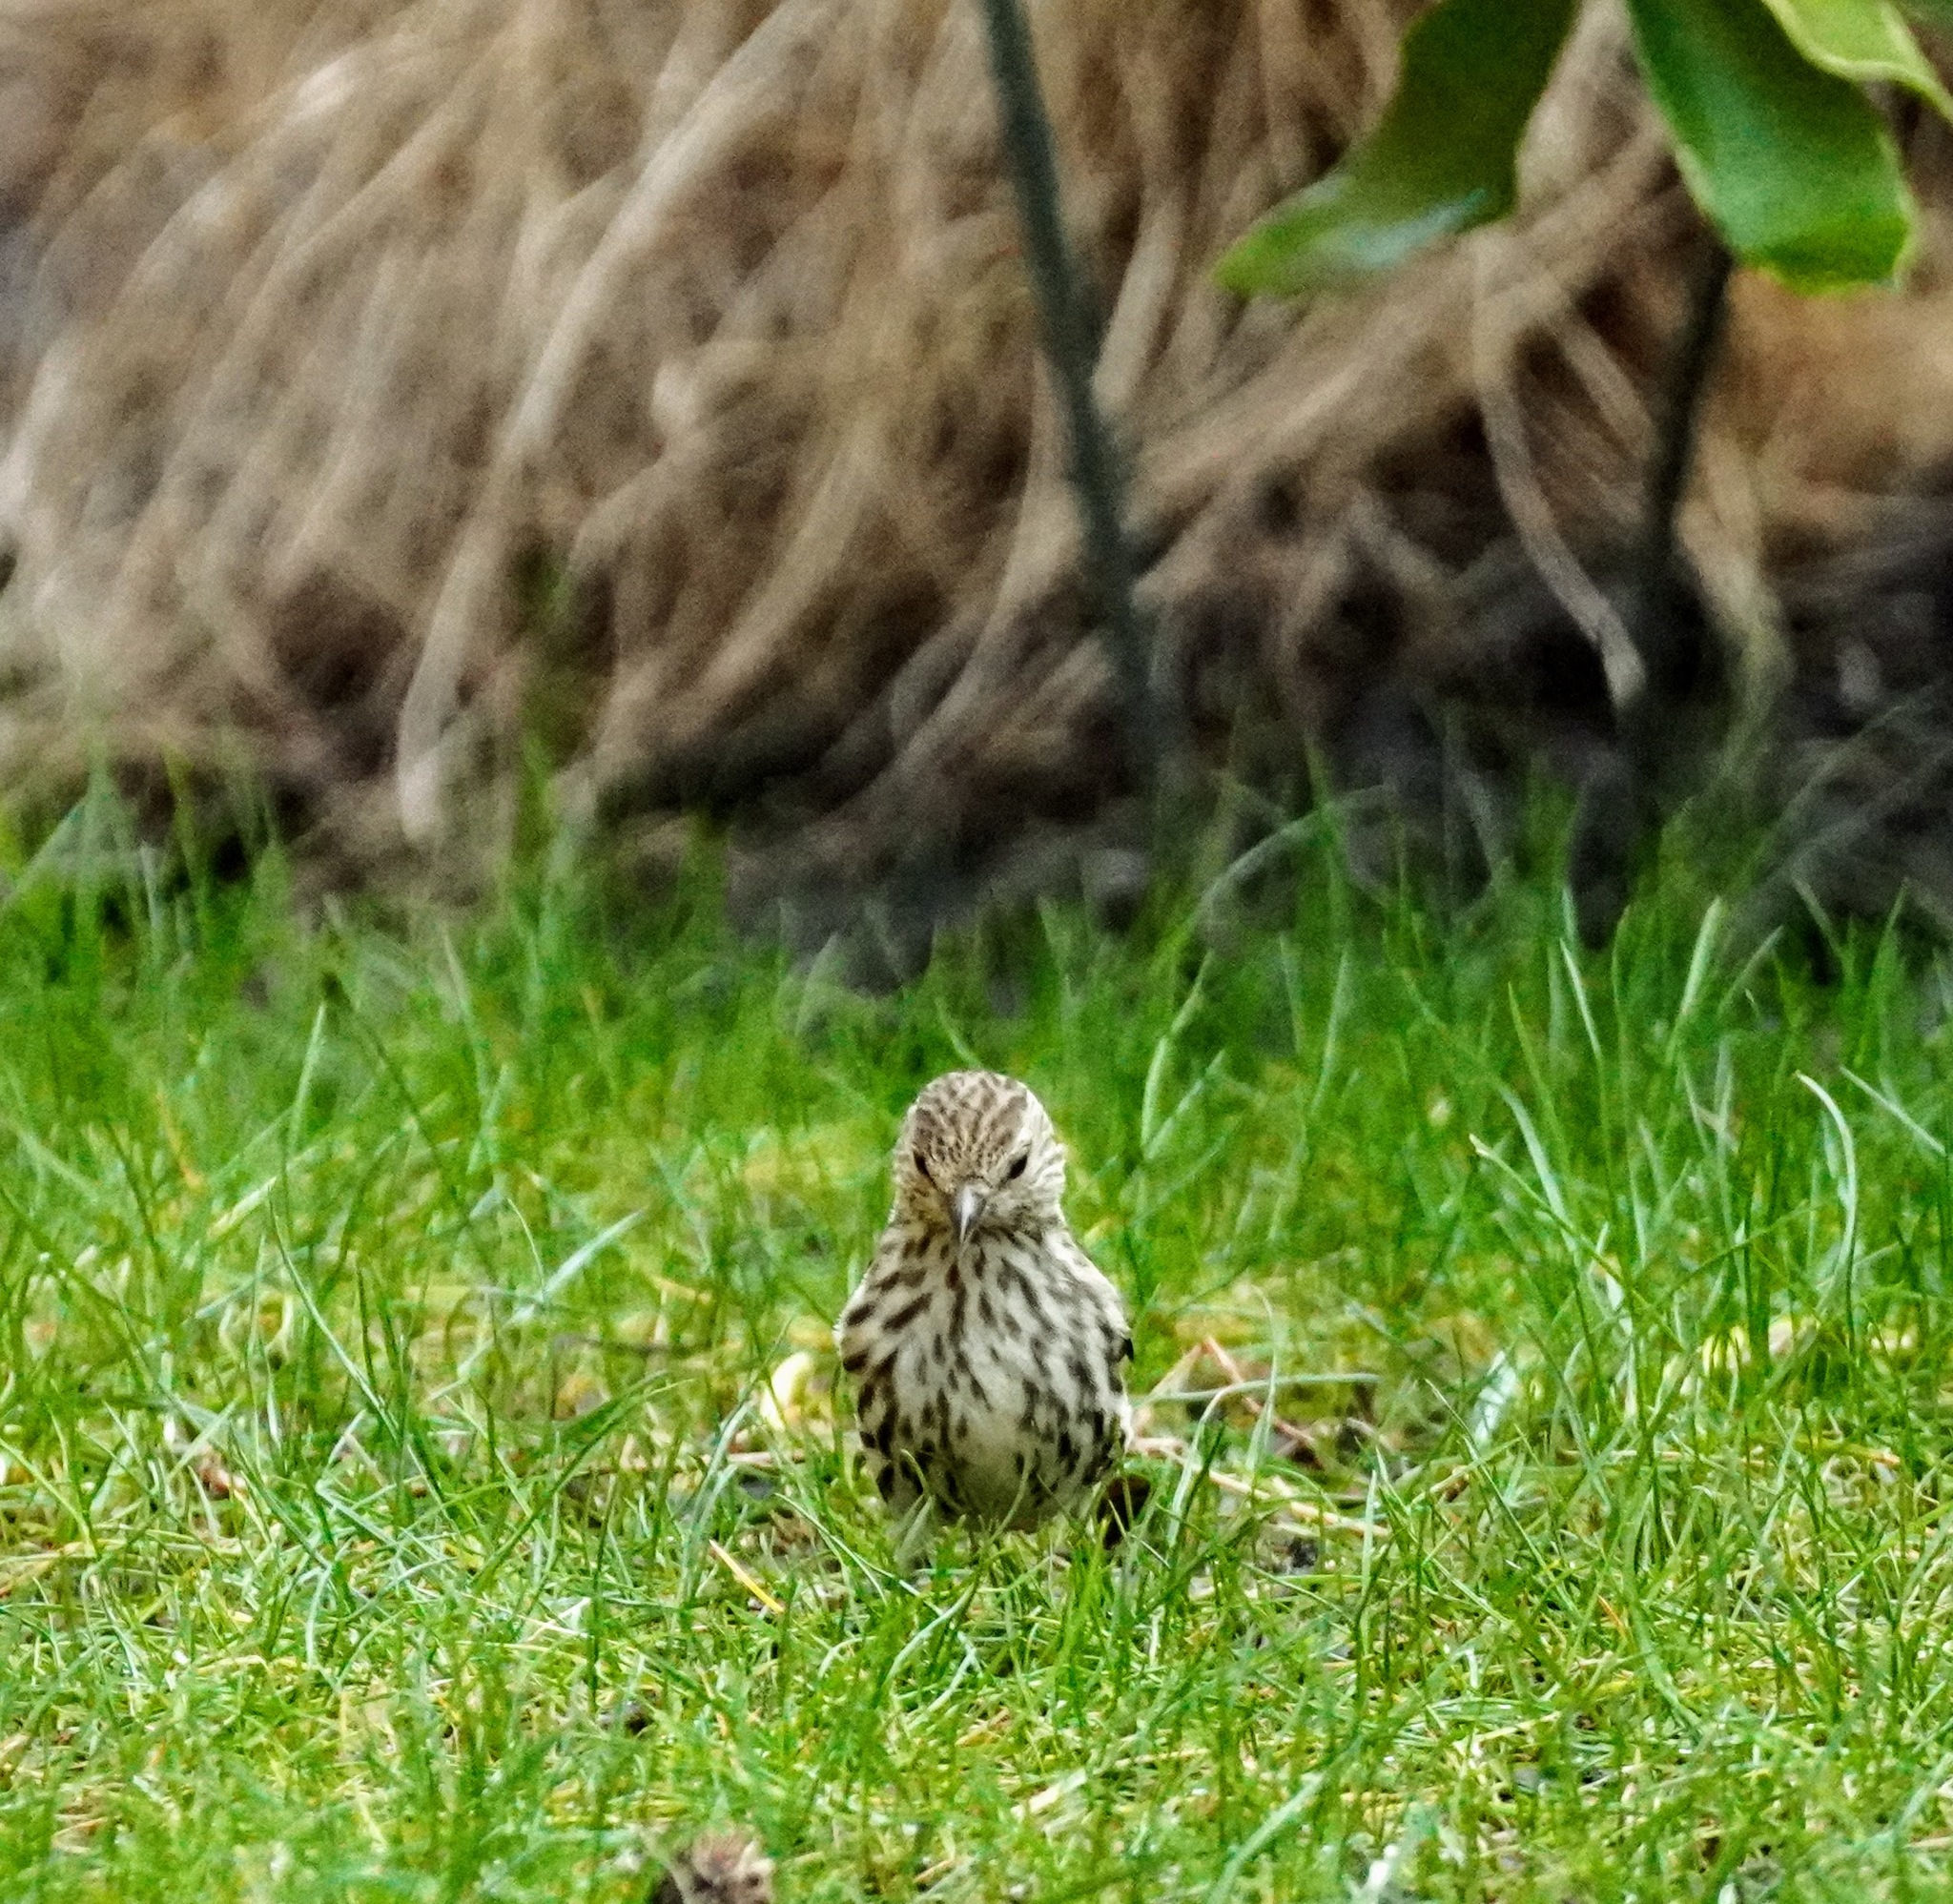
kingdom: Animalia
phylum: Chordata
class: Aves
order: Passeriformes
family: Fringillidae
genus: Spinus
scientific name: Spinus pinus
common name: Pine siskin
